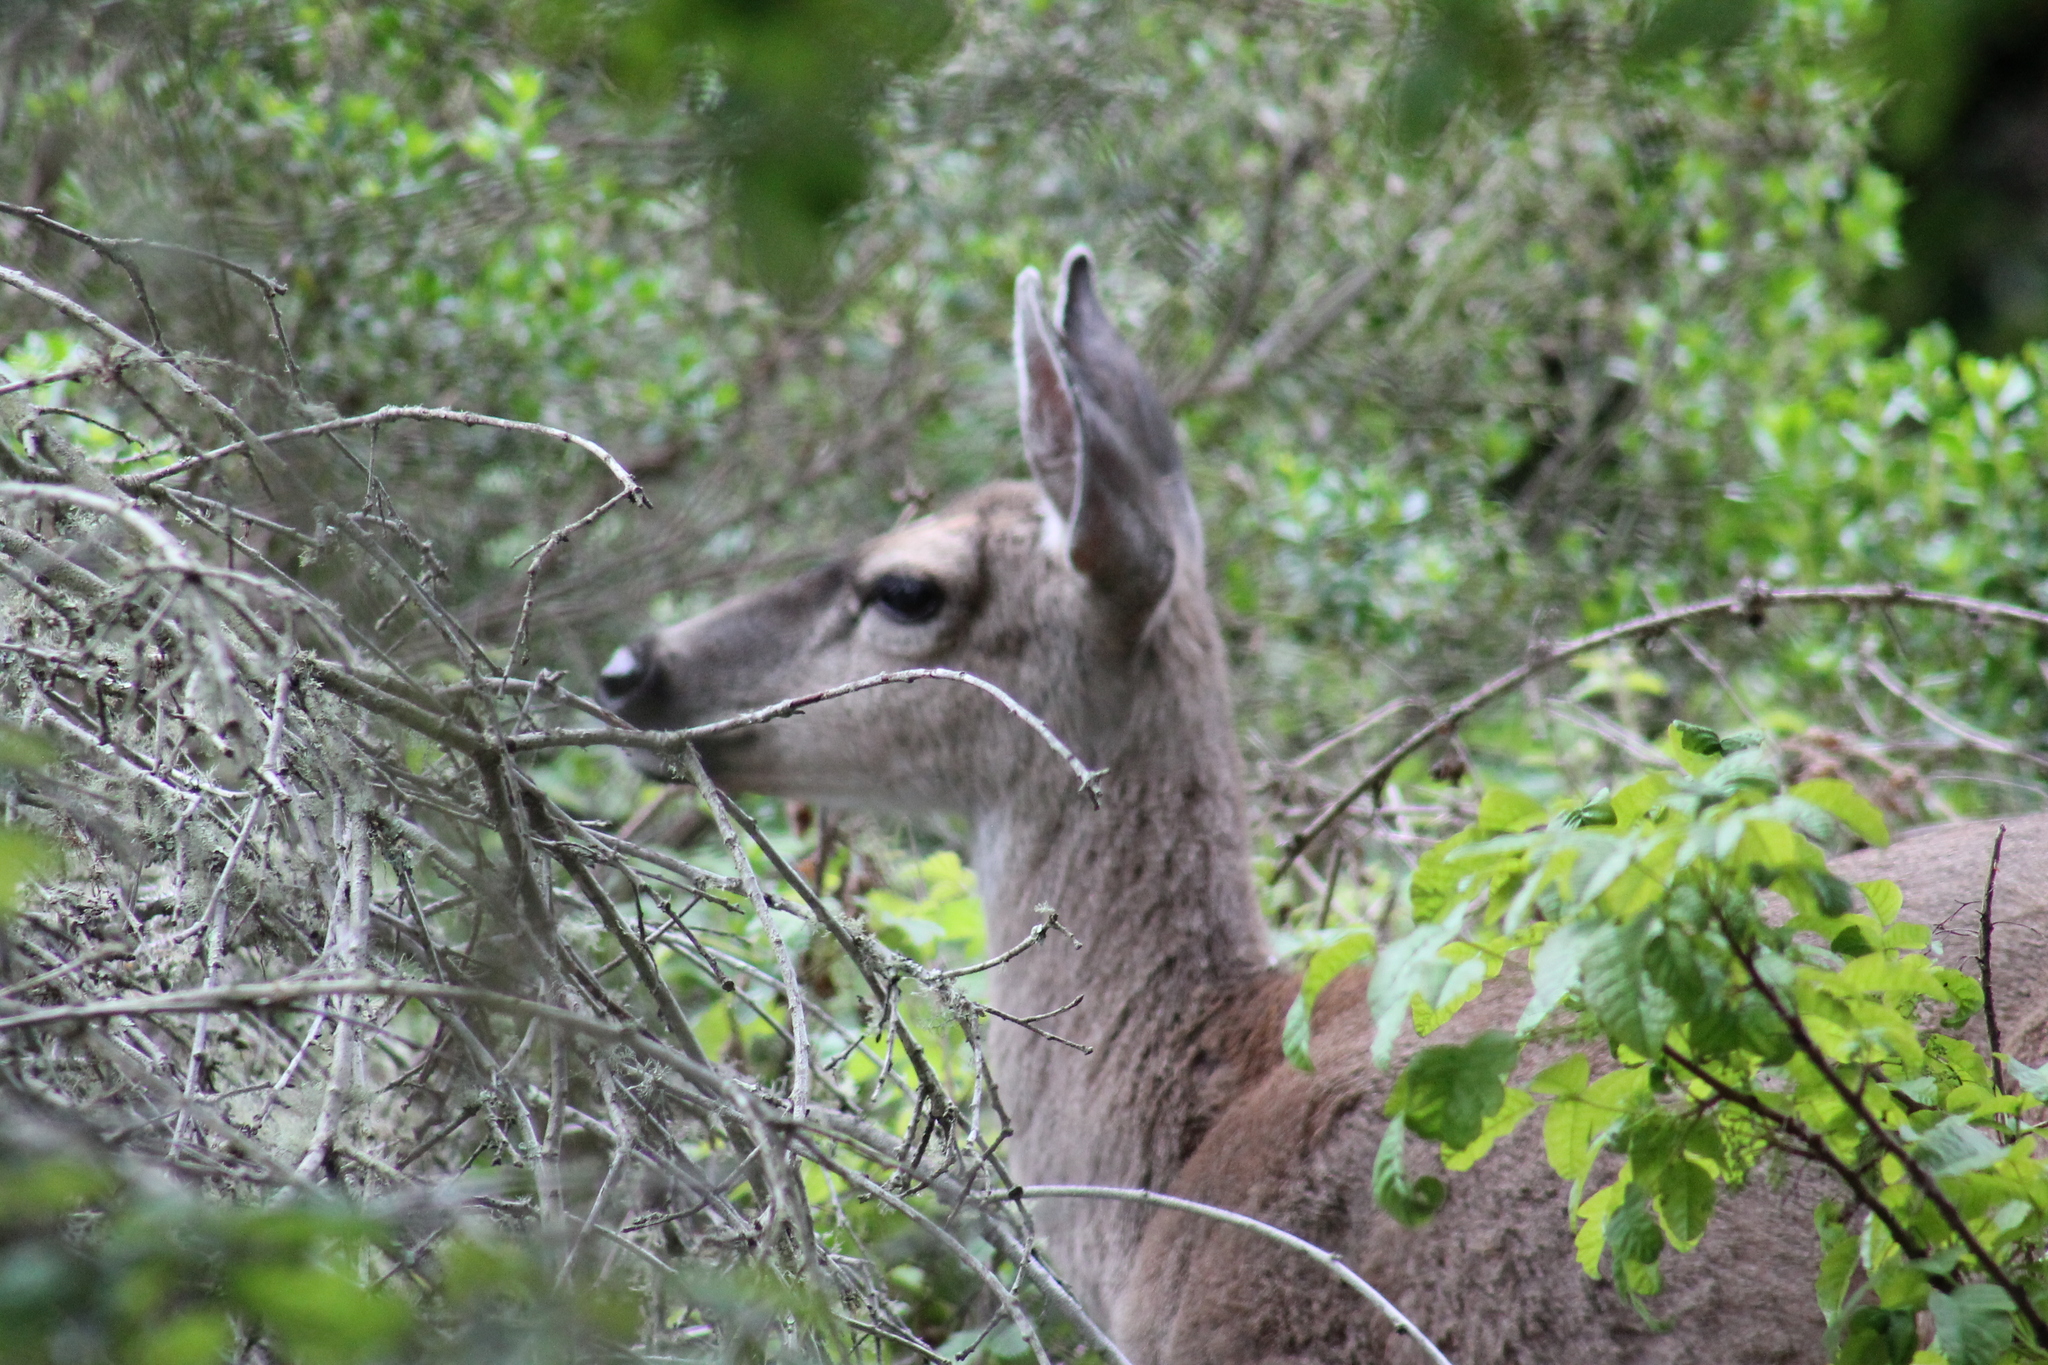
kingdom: Animalia
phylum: Chordata
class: Mammalia
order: Artiodactyla
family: Cervidae
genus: Odocoileus
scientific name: Odocoileus hemionus
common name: Mule deer
